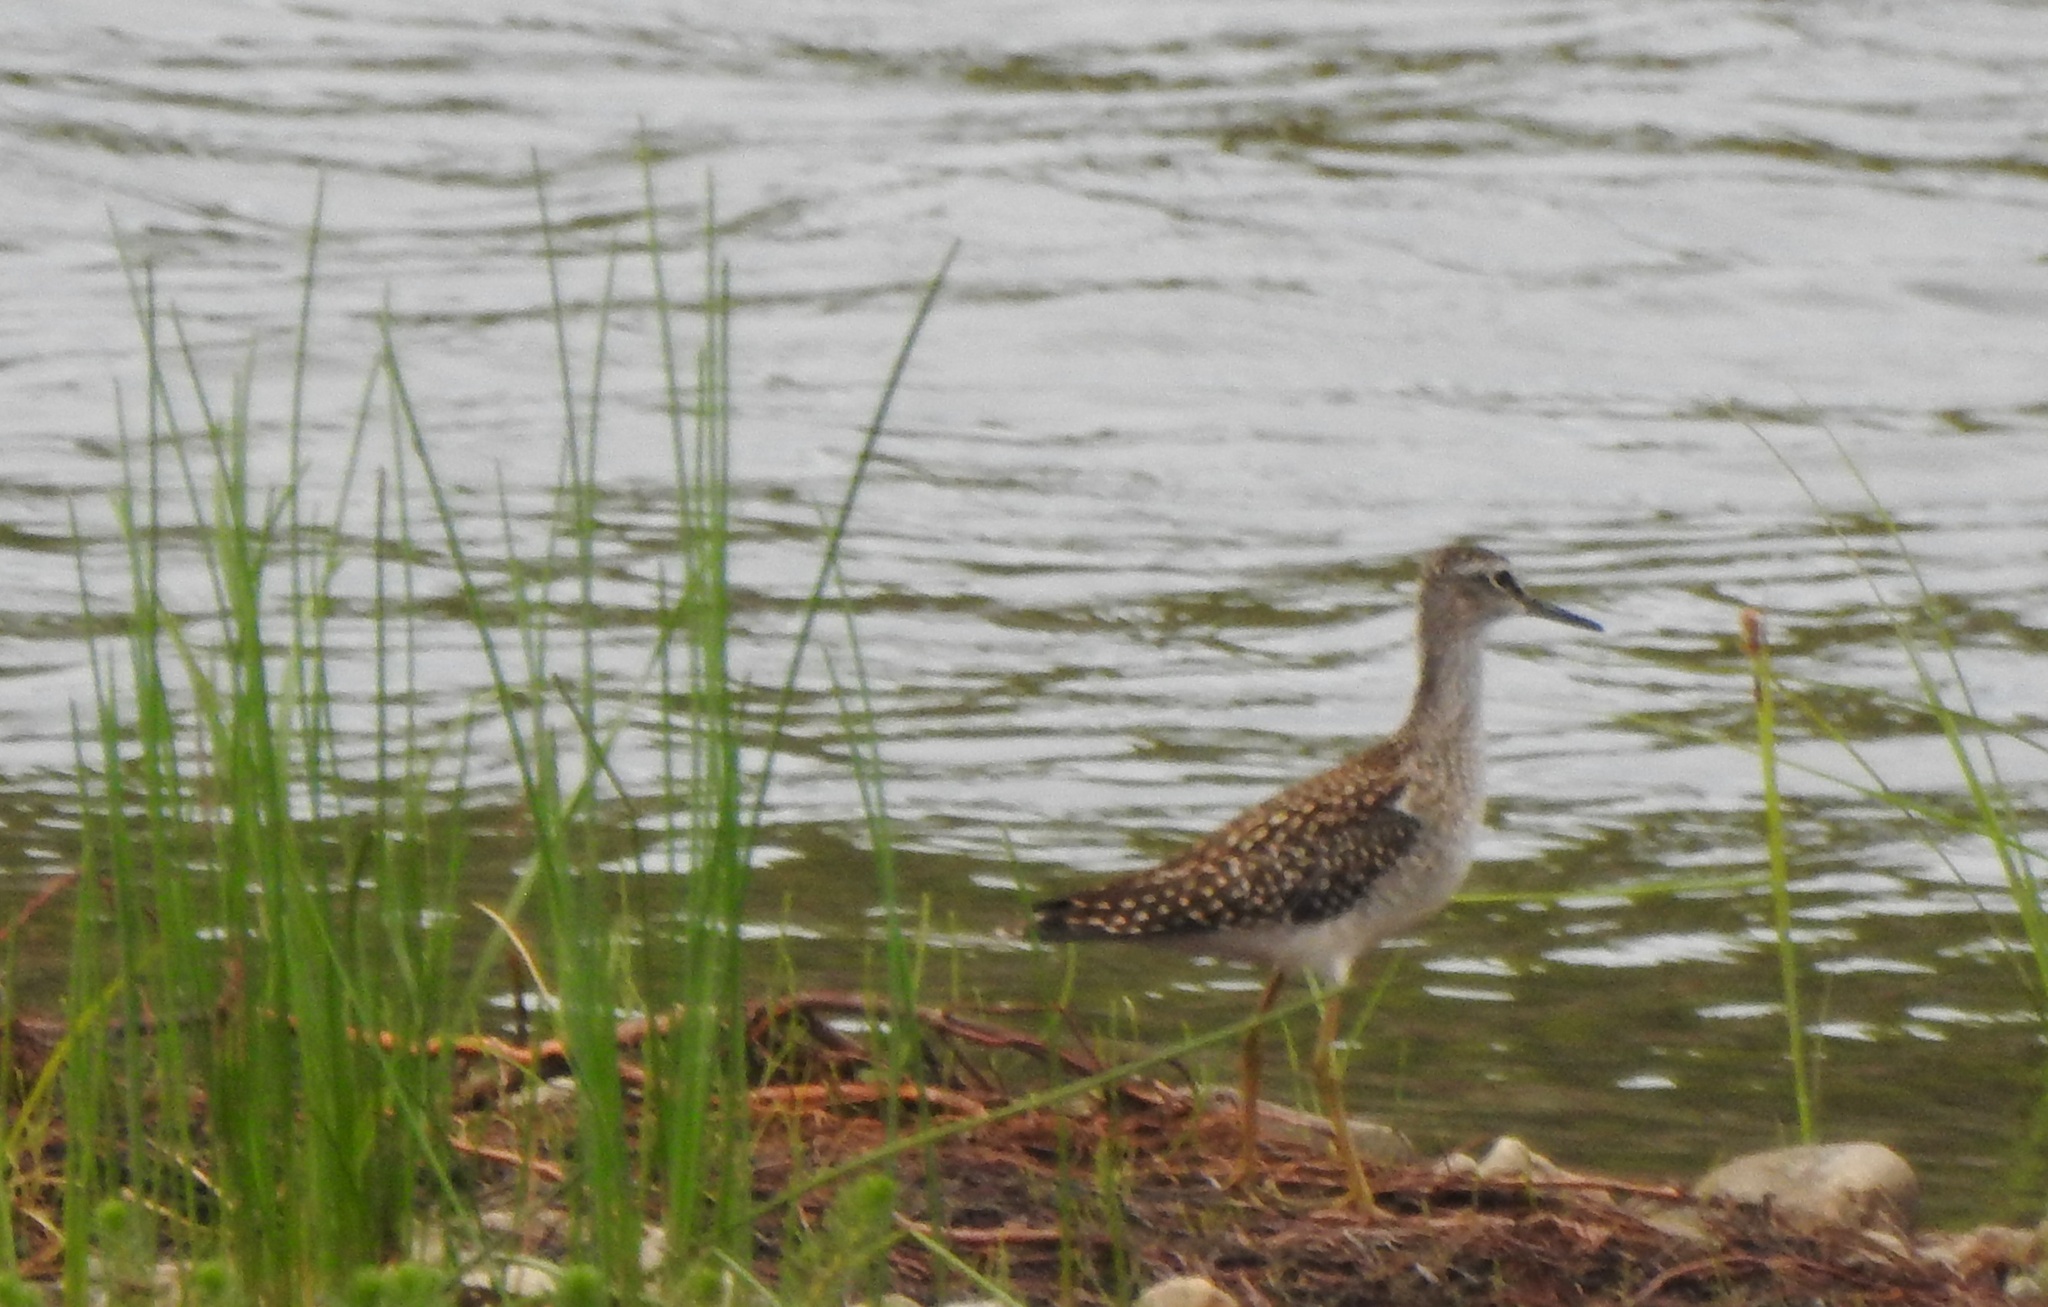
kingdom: Animalia
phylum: Chordata
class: Aves
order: Charadriiformes
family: Scolopacidae
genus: Tringa
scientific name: Tringa glareola
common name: Wood sandpiper
